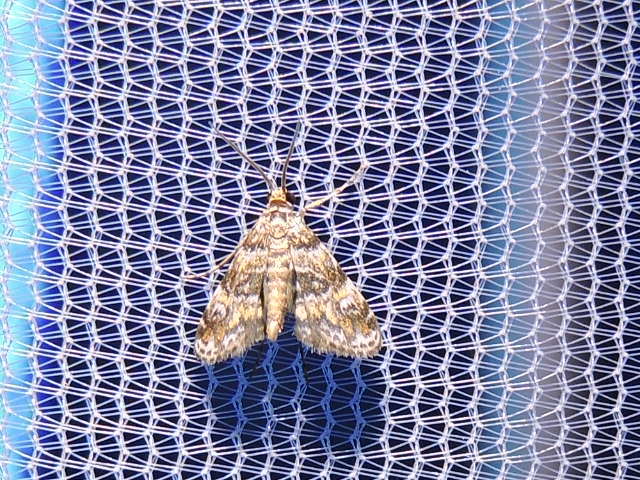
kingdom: Animalia
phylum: Arthropoda
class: Insecta
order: Lepidoptera
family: Crambidae
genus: Elophila
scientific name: Elophila obliteralis
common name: Waterlily leafcutter moth
